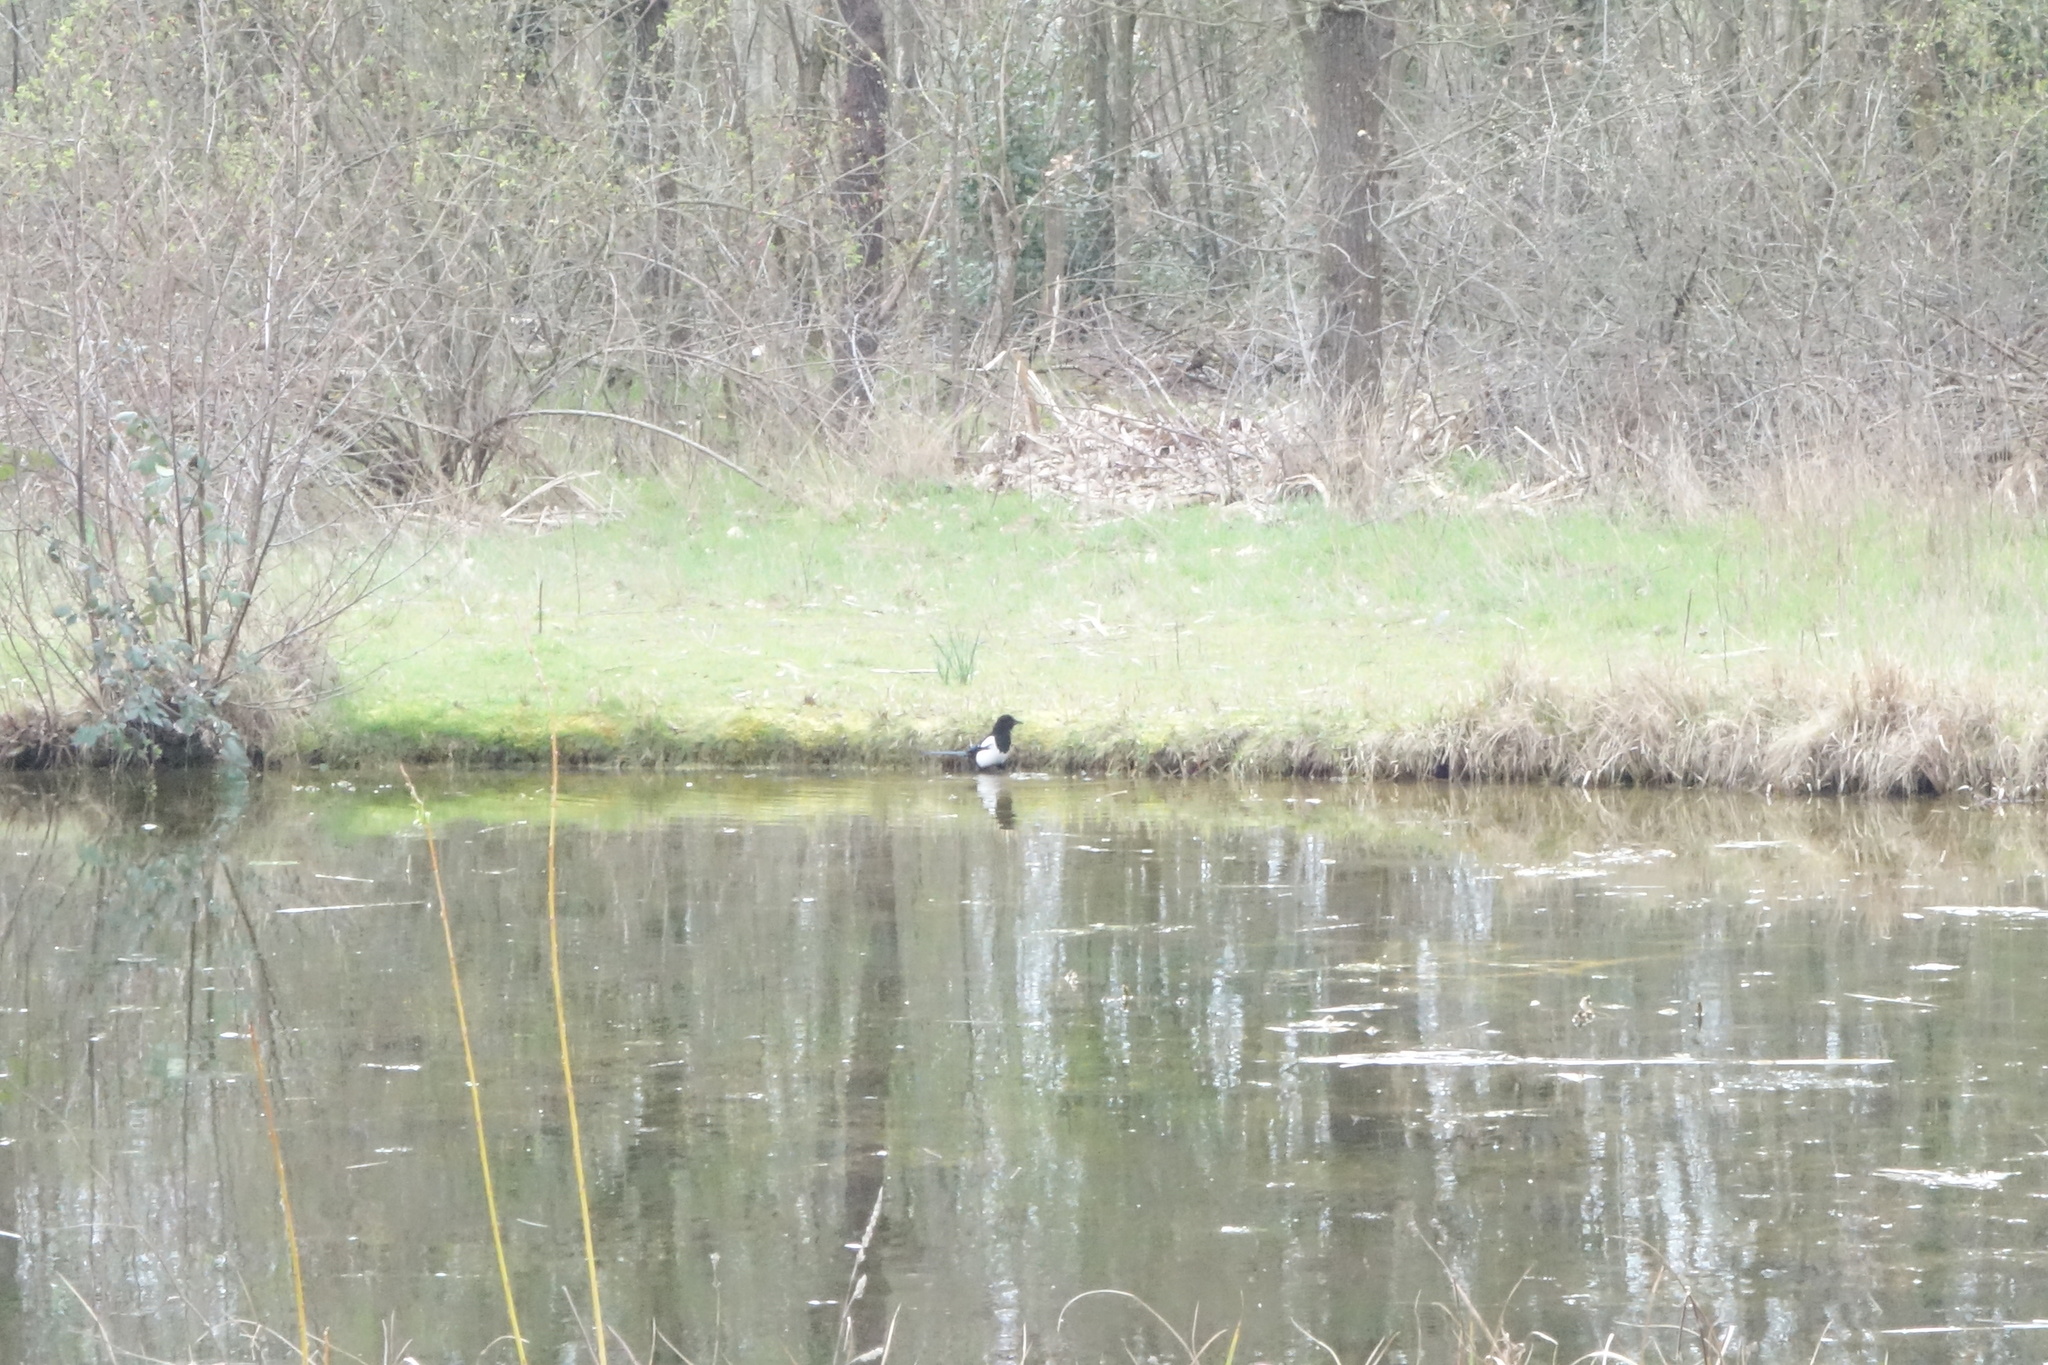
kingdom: Animalia
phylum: Chordata
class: Aves
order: Passeriformes
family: Corvidae
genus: Pica
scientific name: Pica pica
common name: Eurasian magpie
